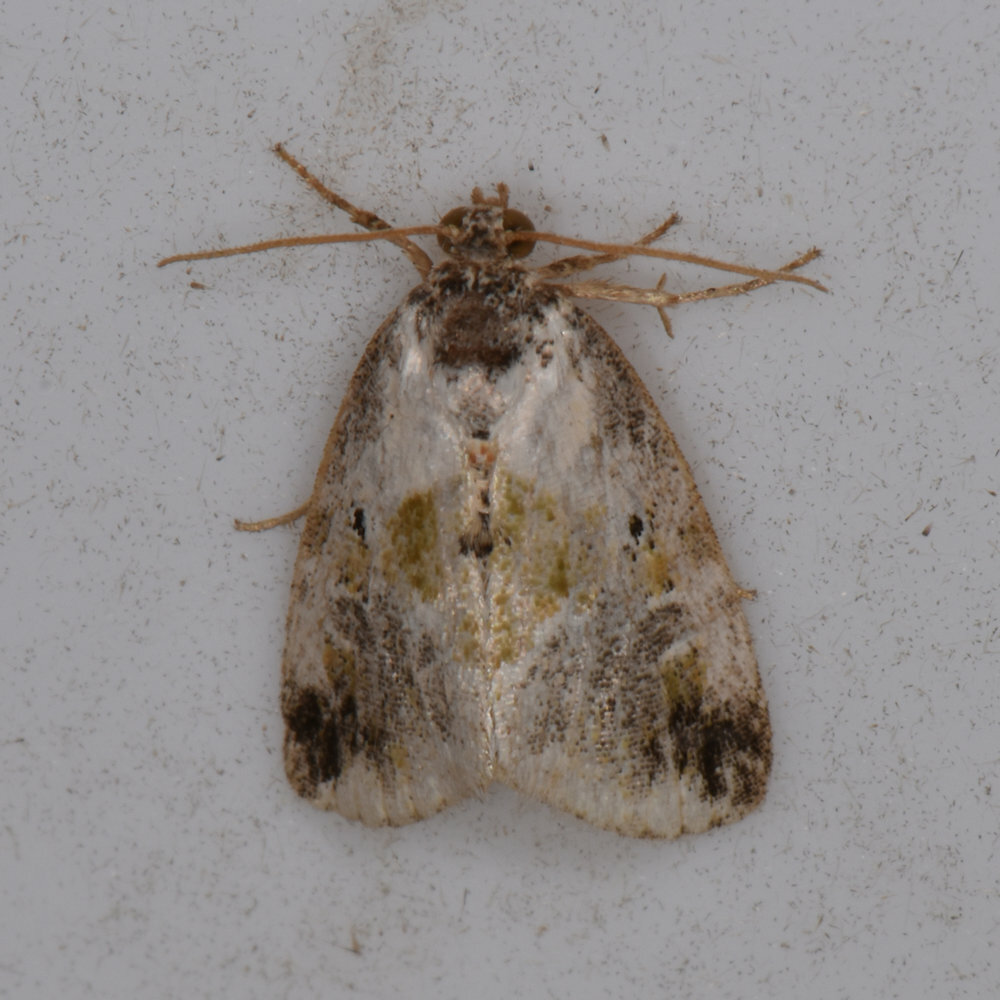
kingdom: Animalia
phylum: Arthropoda
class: Insecta
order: Lepidoptera
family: Noctuidae
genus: Maliattha
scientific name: Maliattha synochitis
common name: Black-dotted glyph
